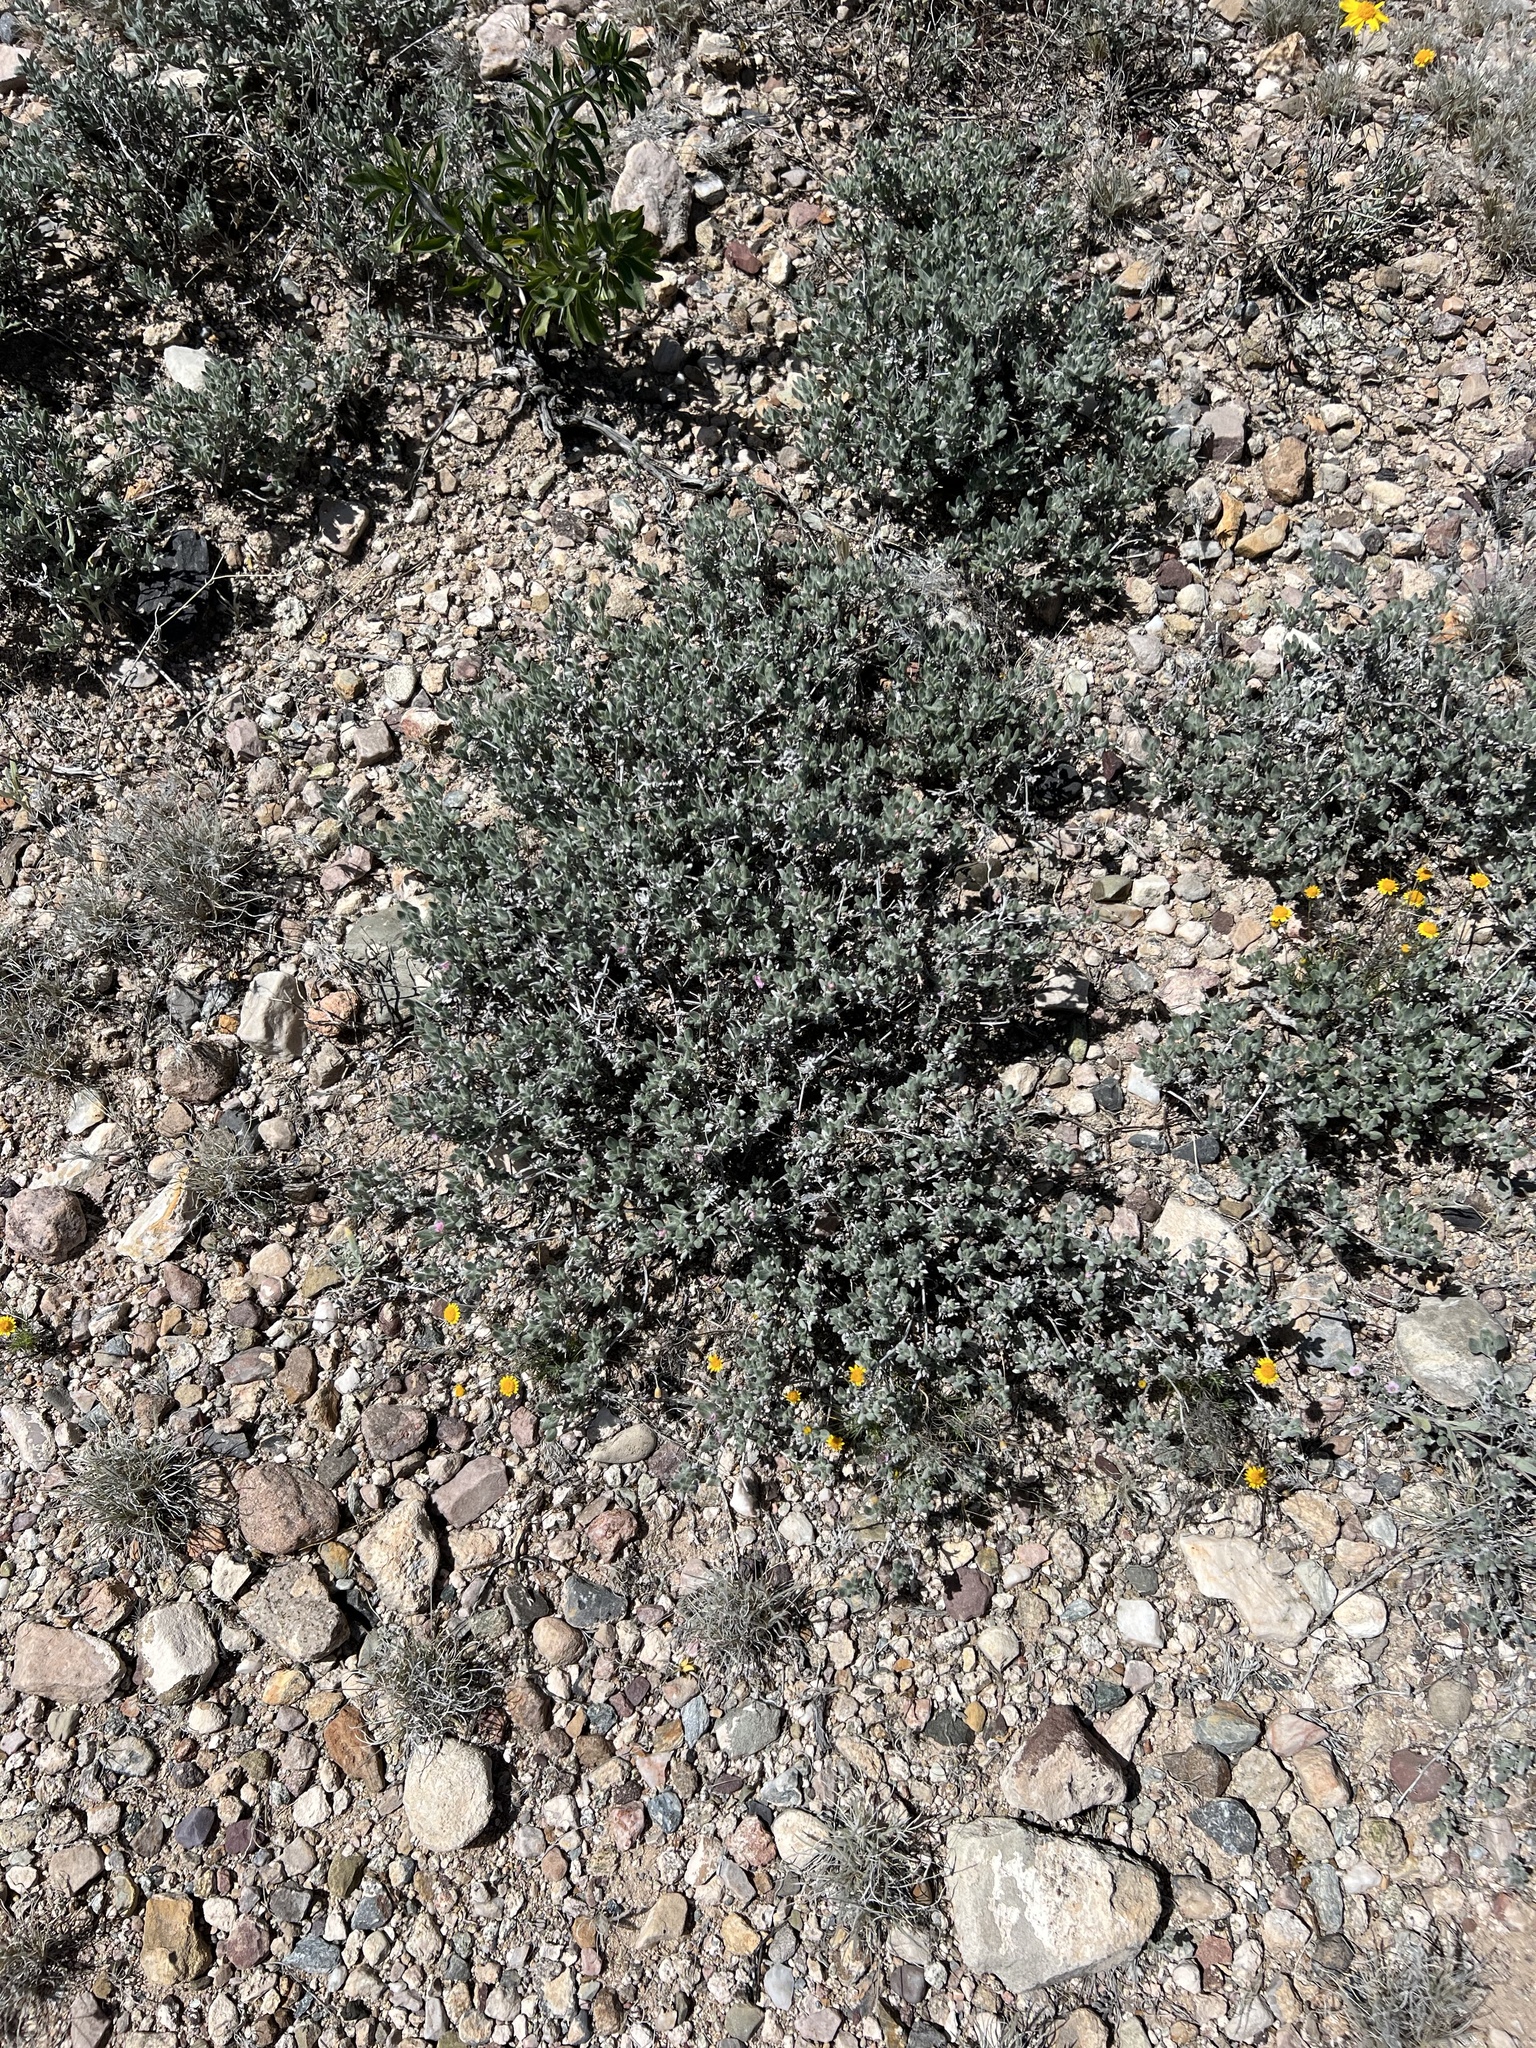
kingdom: Plantae
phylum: Tracheophyta
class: Magnoliopsida
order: Boraginales
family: Ehretiaceae
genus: Tiquilia
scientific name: Tiquilia canescens
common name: Hairy tiquilia
